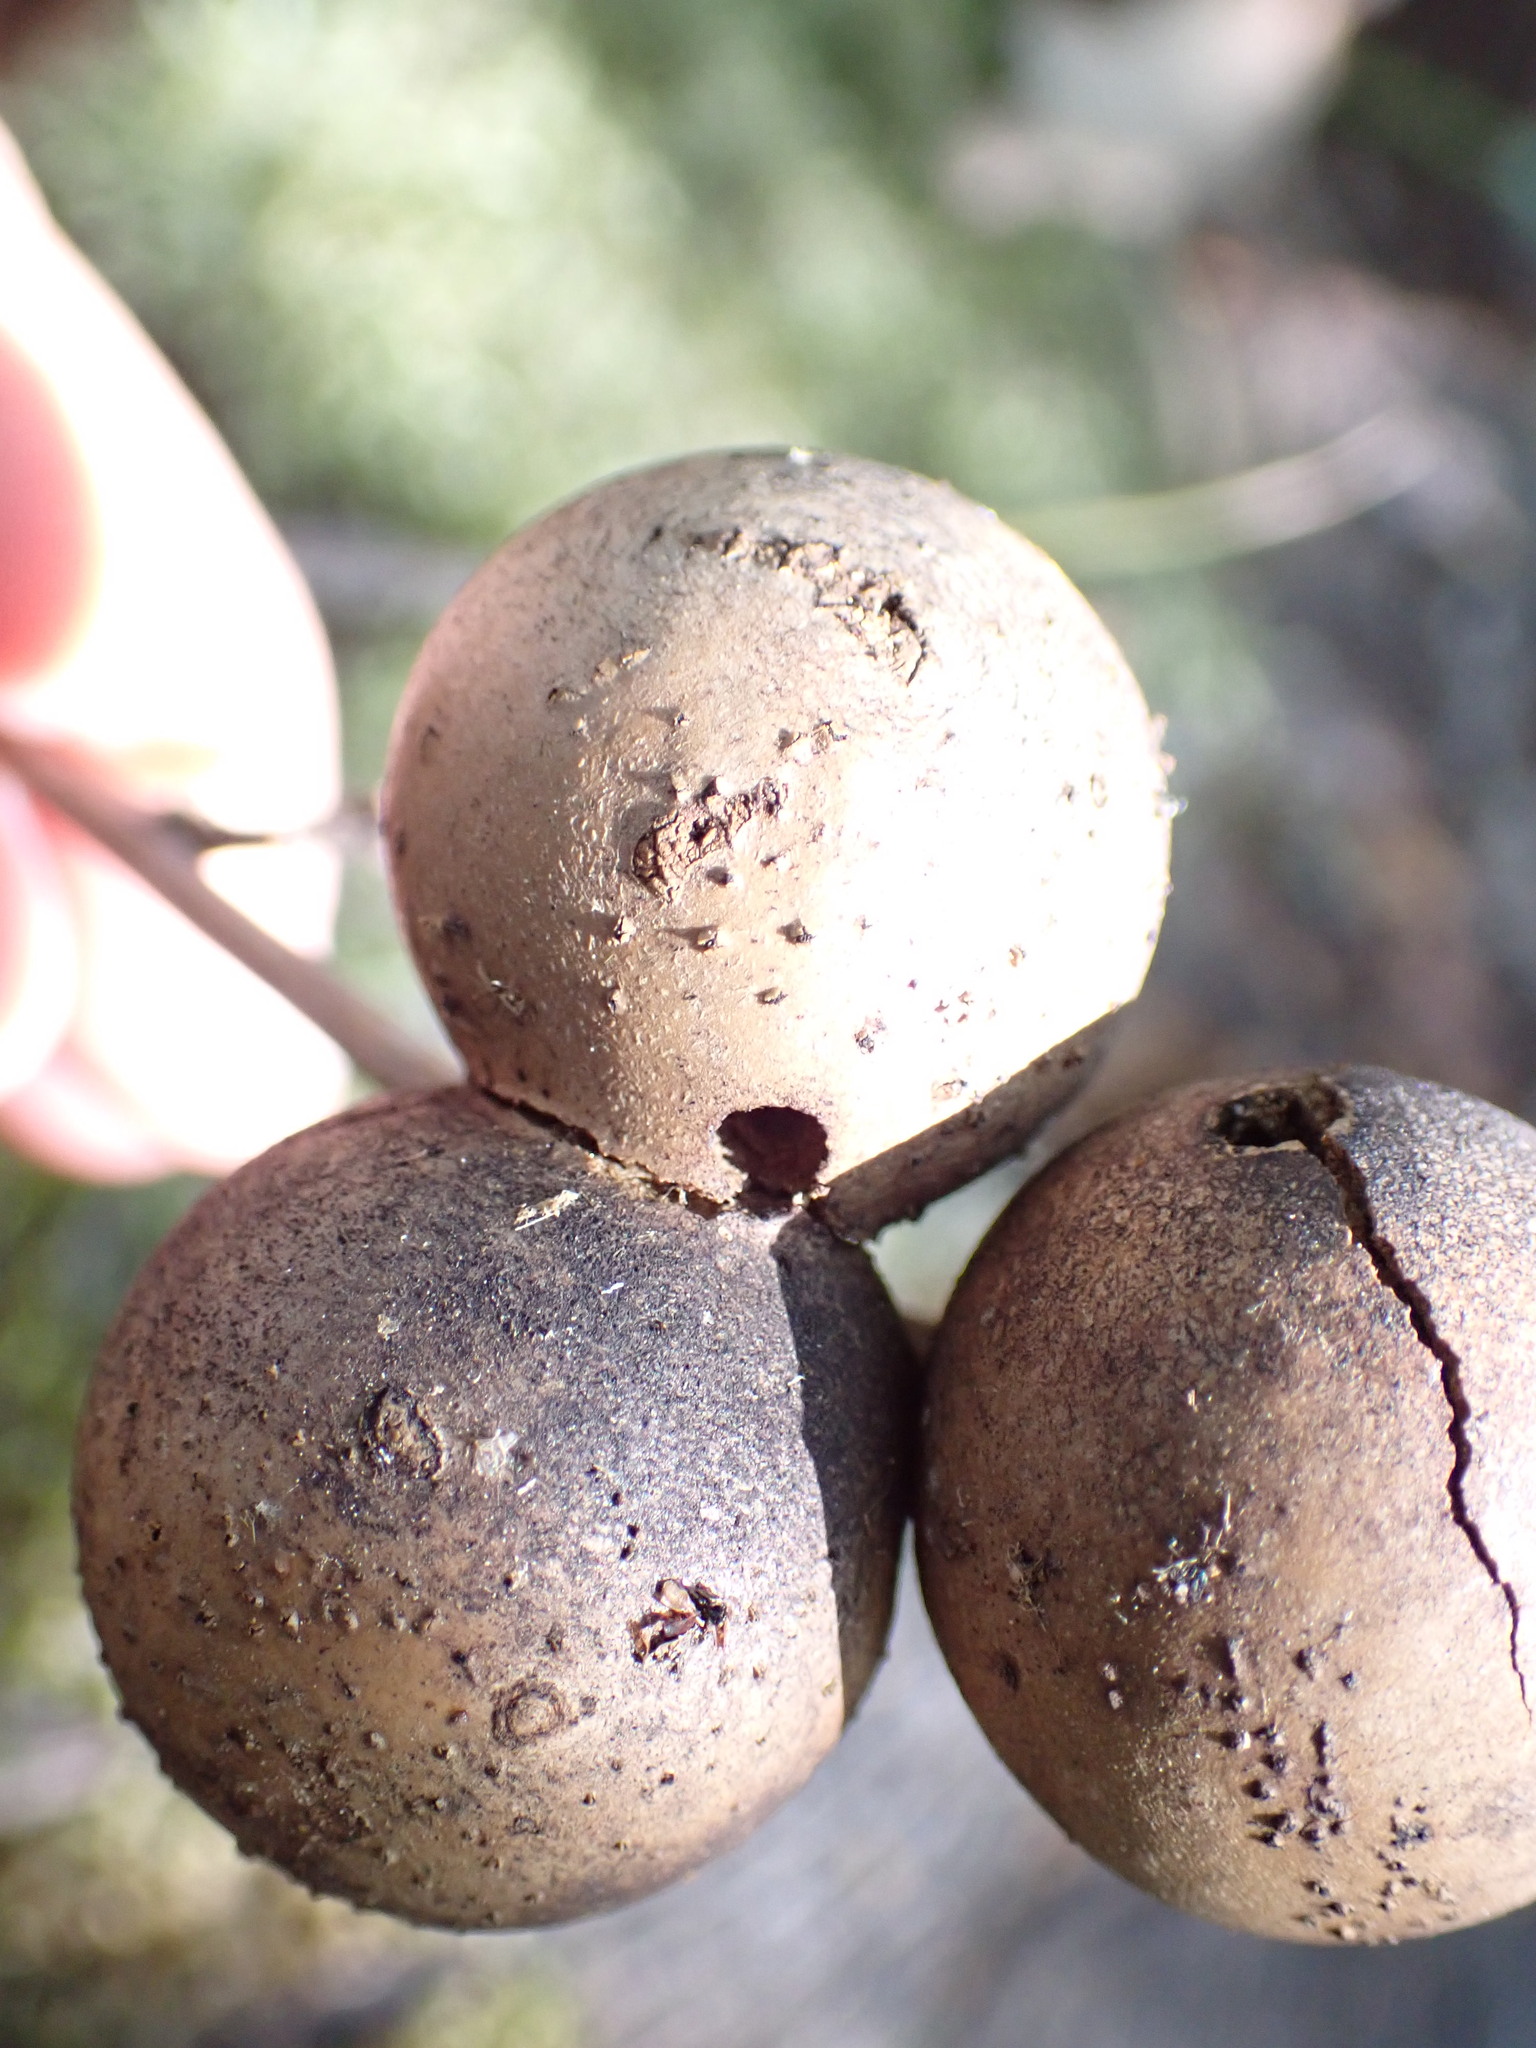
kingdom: Animalia
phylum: Arthropoda
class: Insecta
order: Hymenoptera
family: Cynipidae
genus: Andricus
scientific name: Andricus kollari
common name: Marble gall
